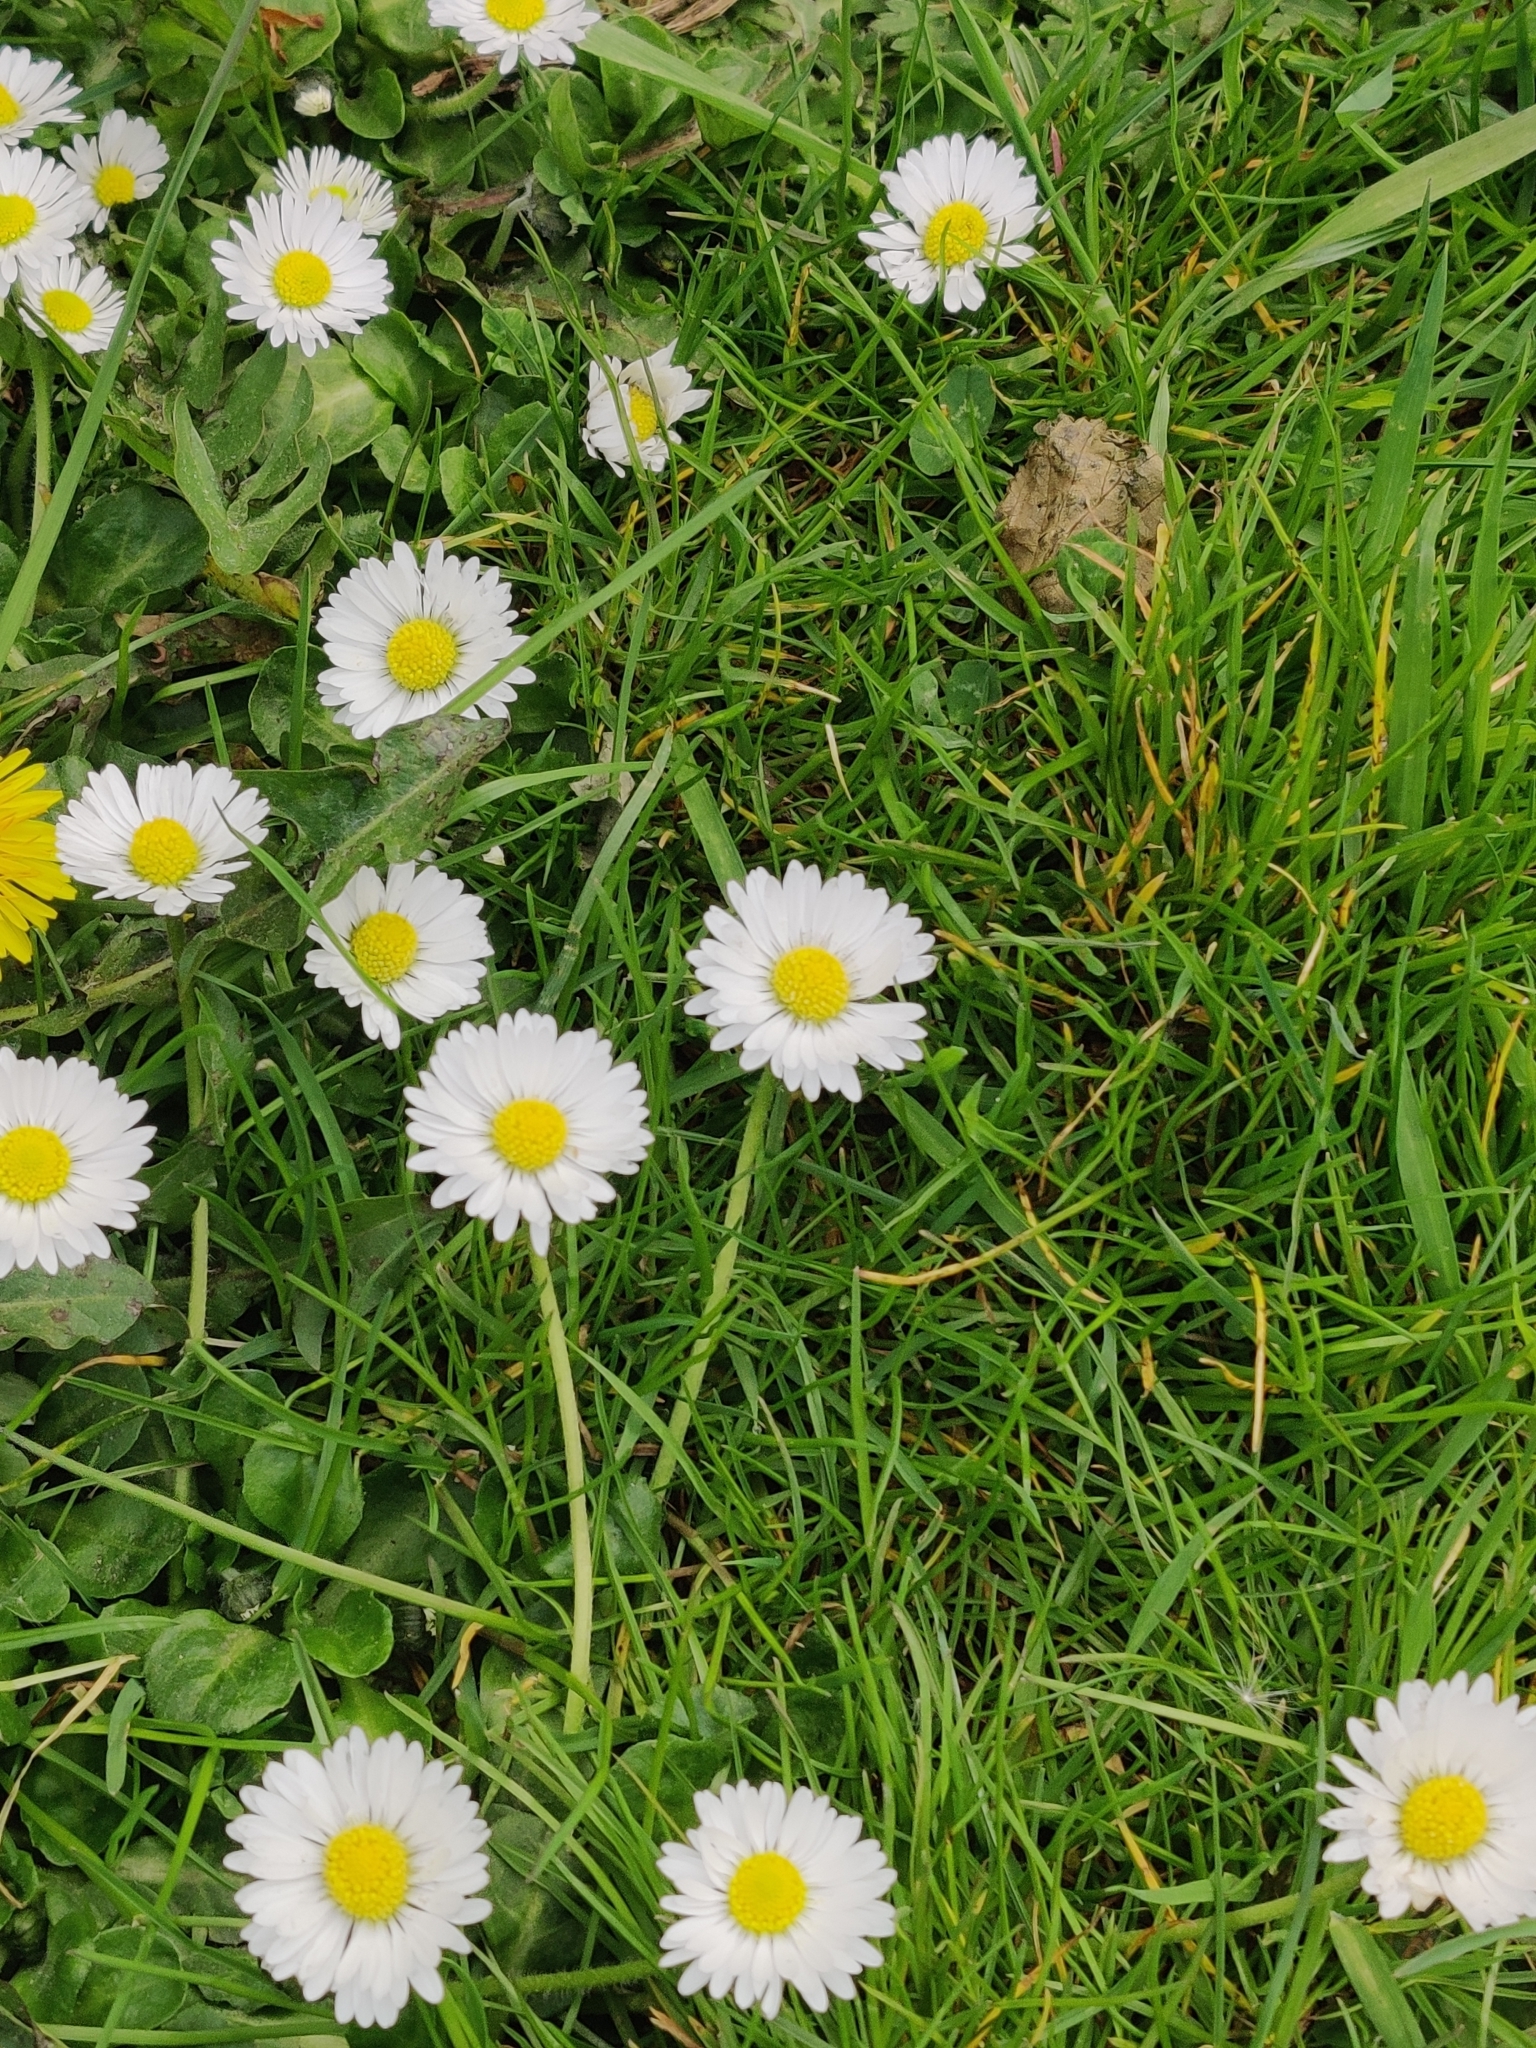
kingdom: Plantae
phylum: Tracheophyta
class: Magnoliopsida
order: Asterales
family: Asteraceae
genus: Bellis
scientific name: Bellis perennis
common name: Lawndaisy
